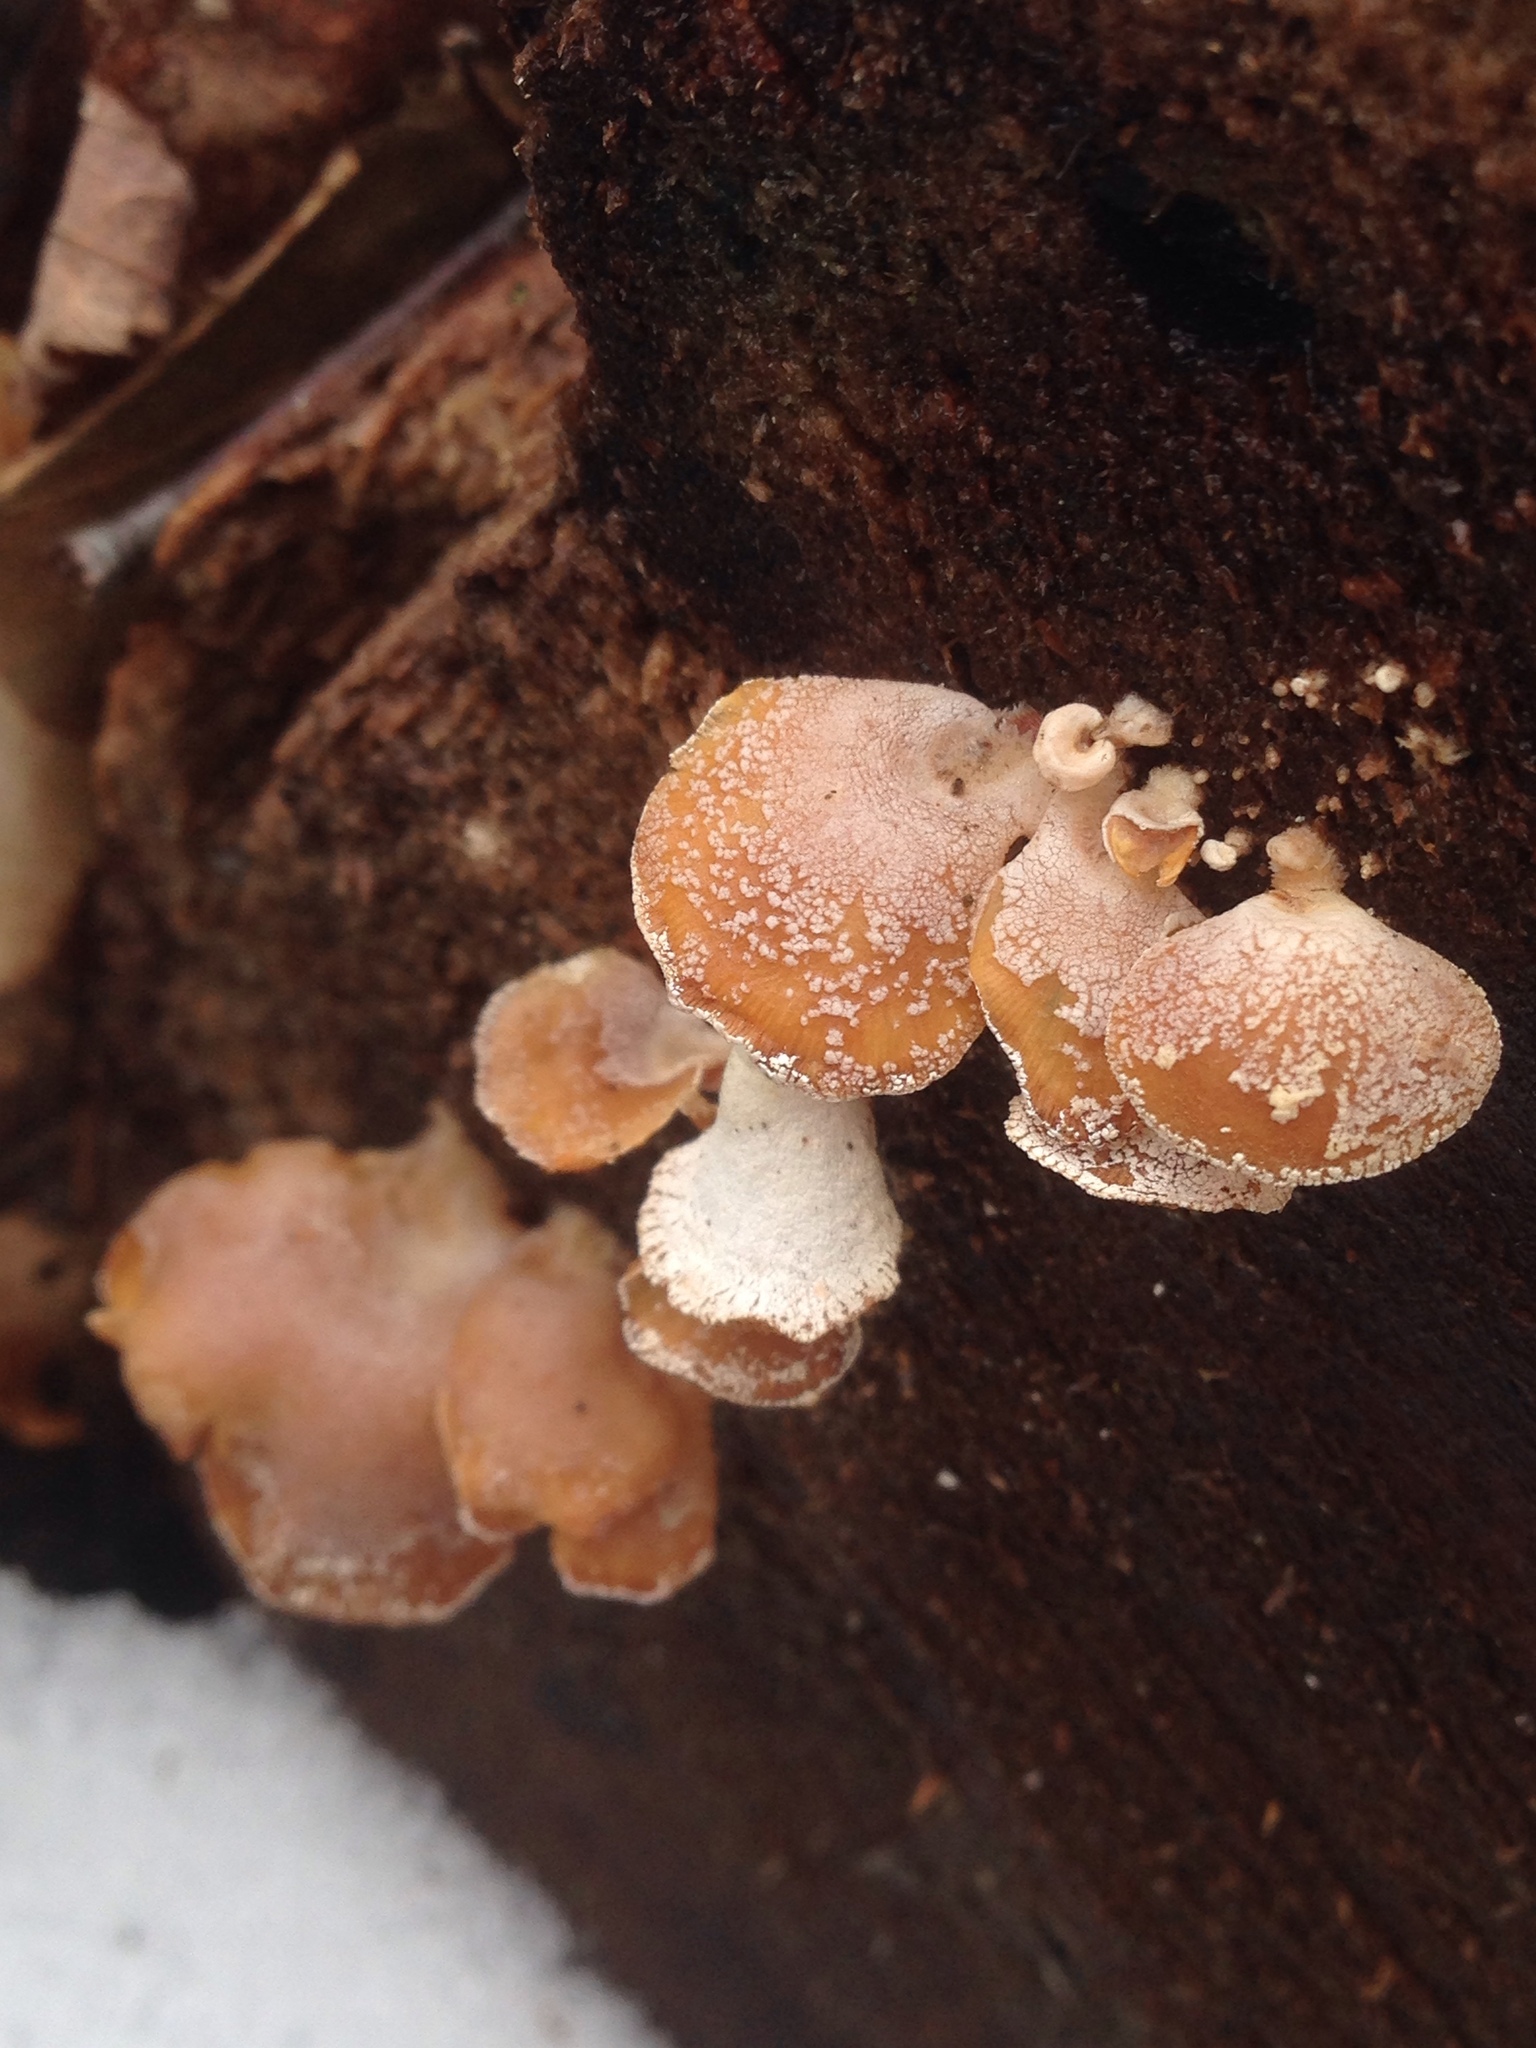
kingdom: Fungi
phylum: Basidiomycota
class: Agaricomycetes
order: Agaricales
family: Mycenaceae
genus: Panellus
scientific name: Panellus stipticus
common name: Bitter oysterling
